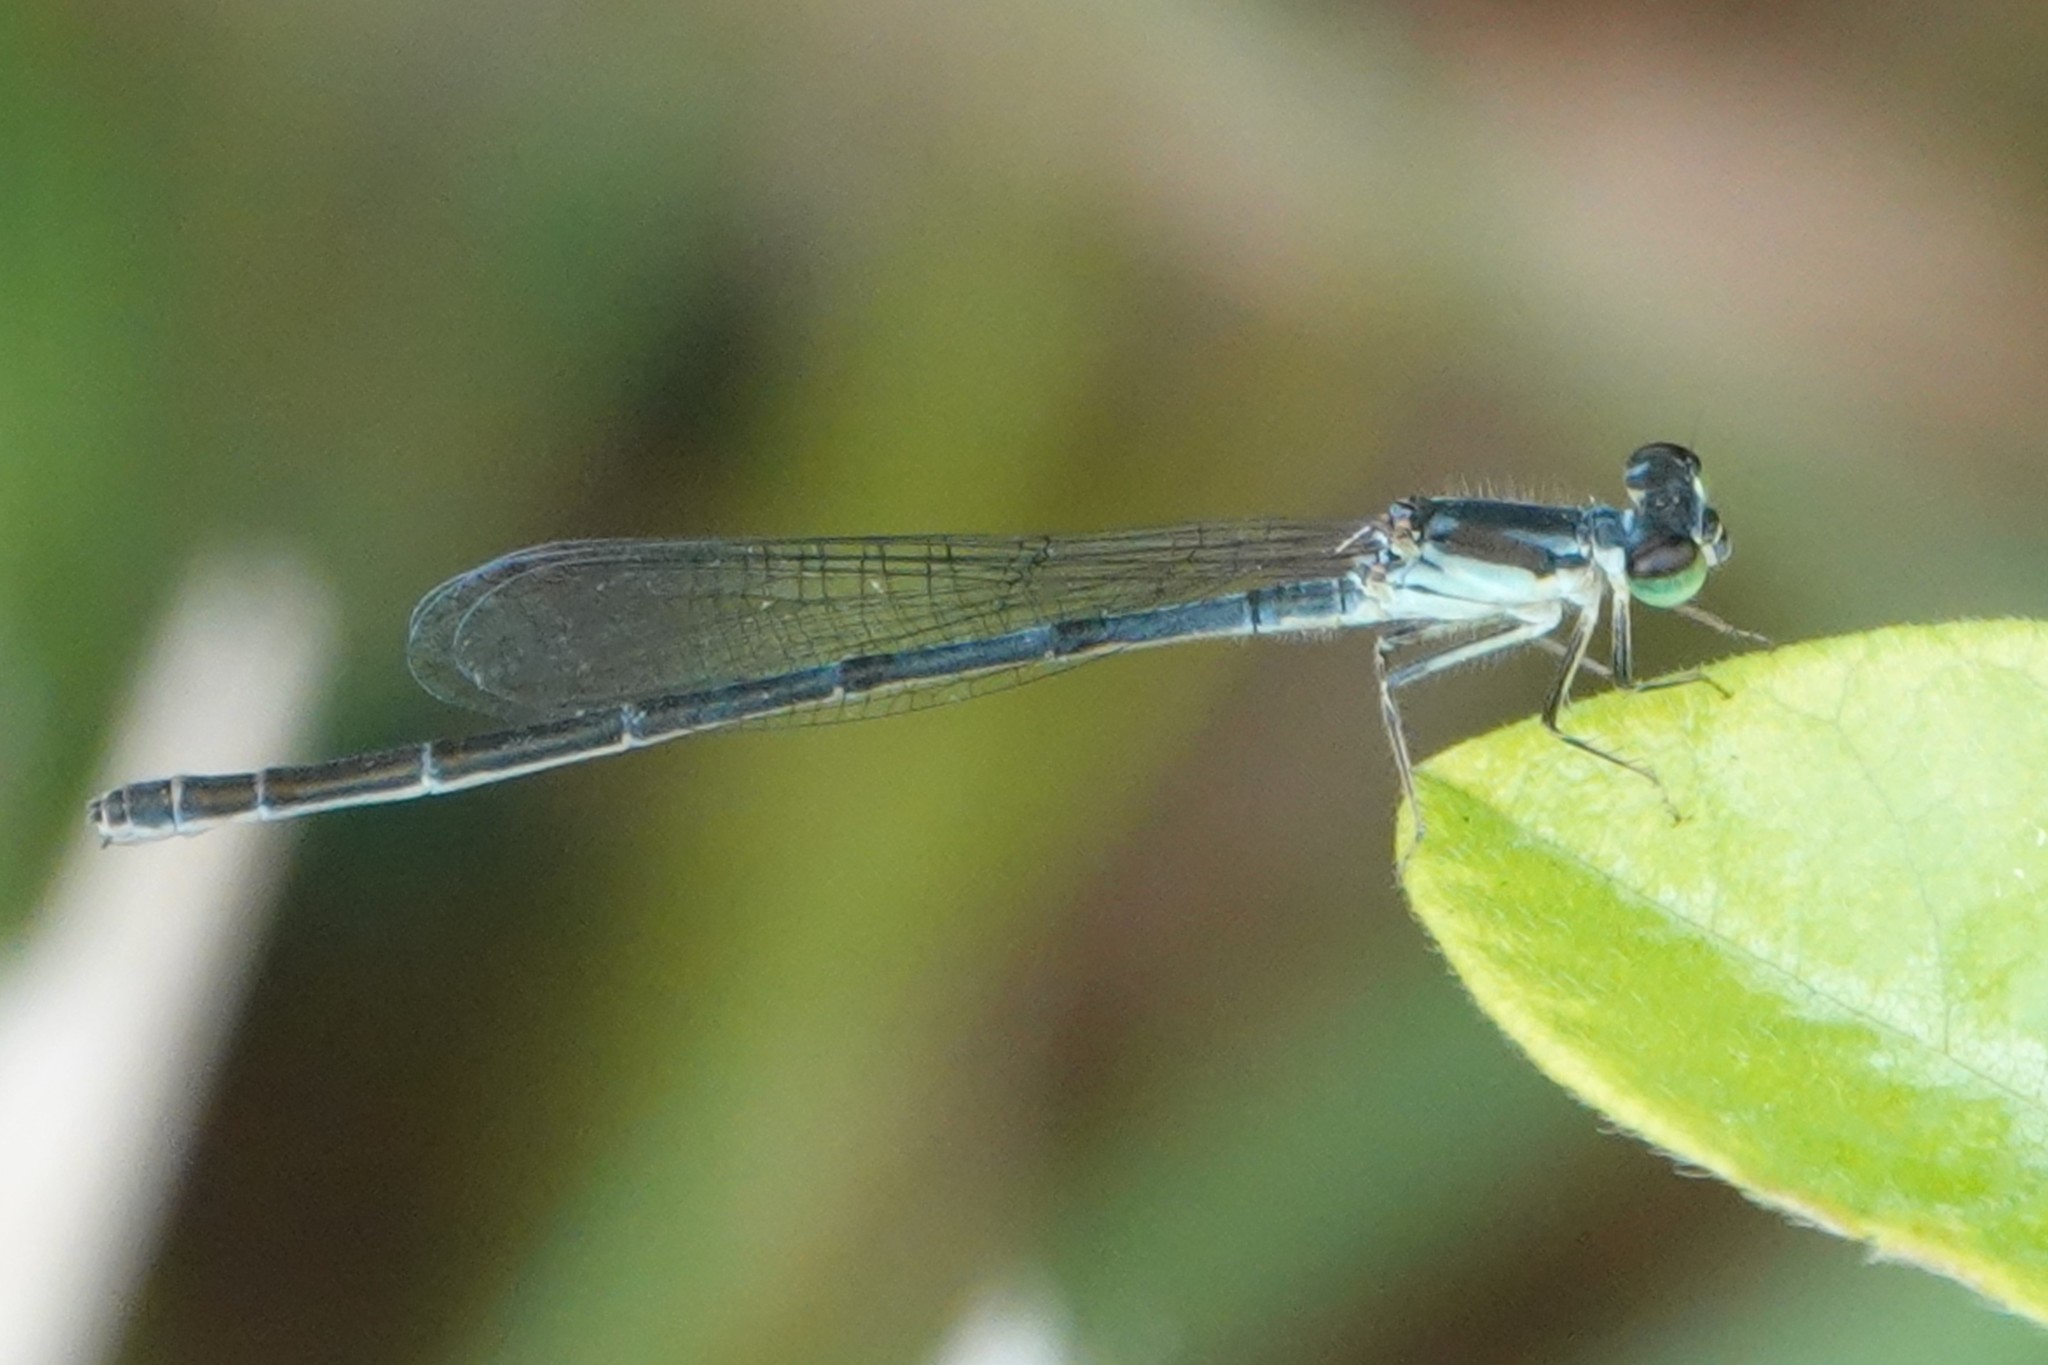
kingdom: Animalia
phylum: Arthropoda
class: Insecta
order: Odonata
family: Coenagrionidae
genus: Ischnura
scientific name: Ischnura posita
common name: Fragile forktail
